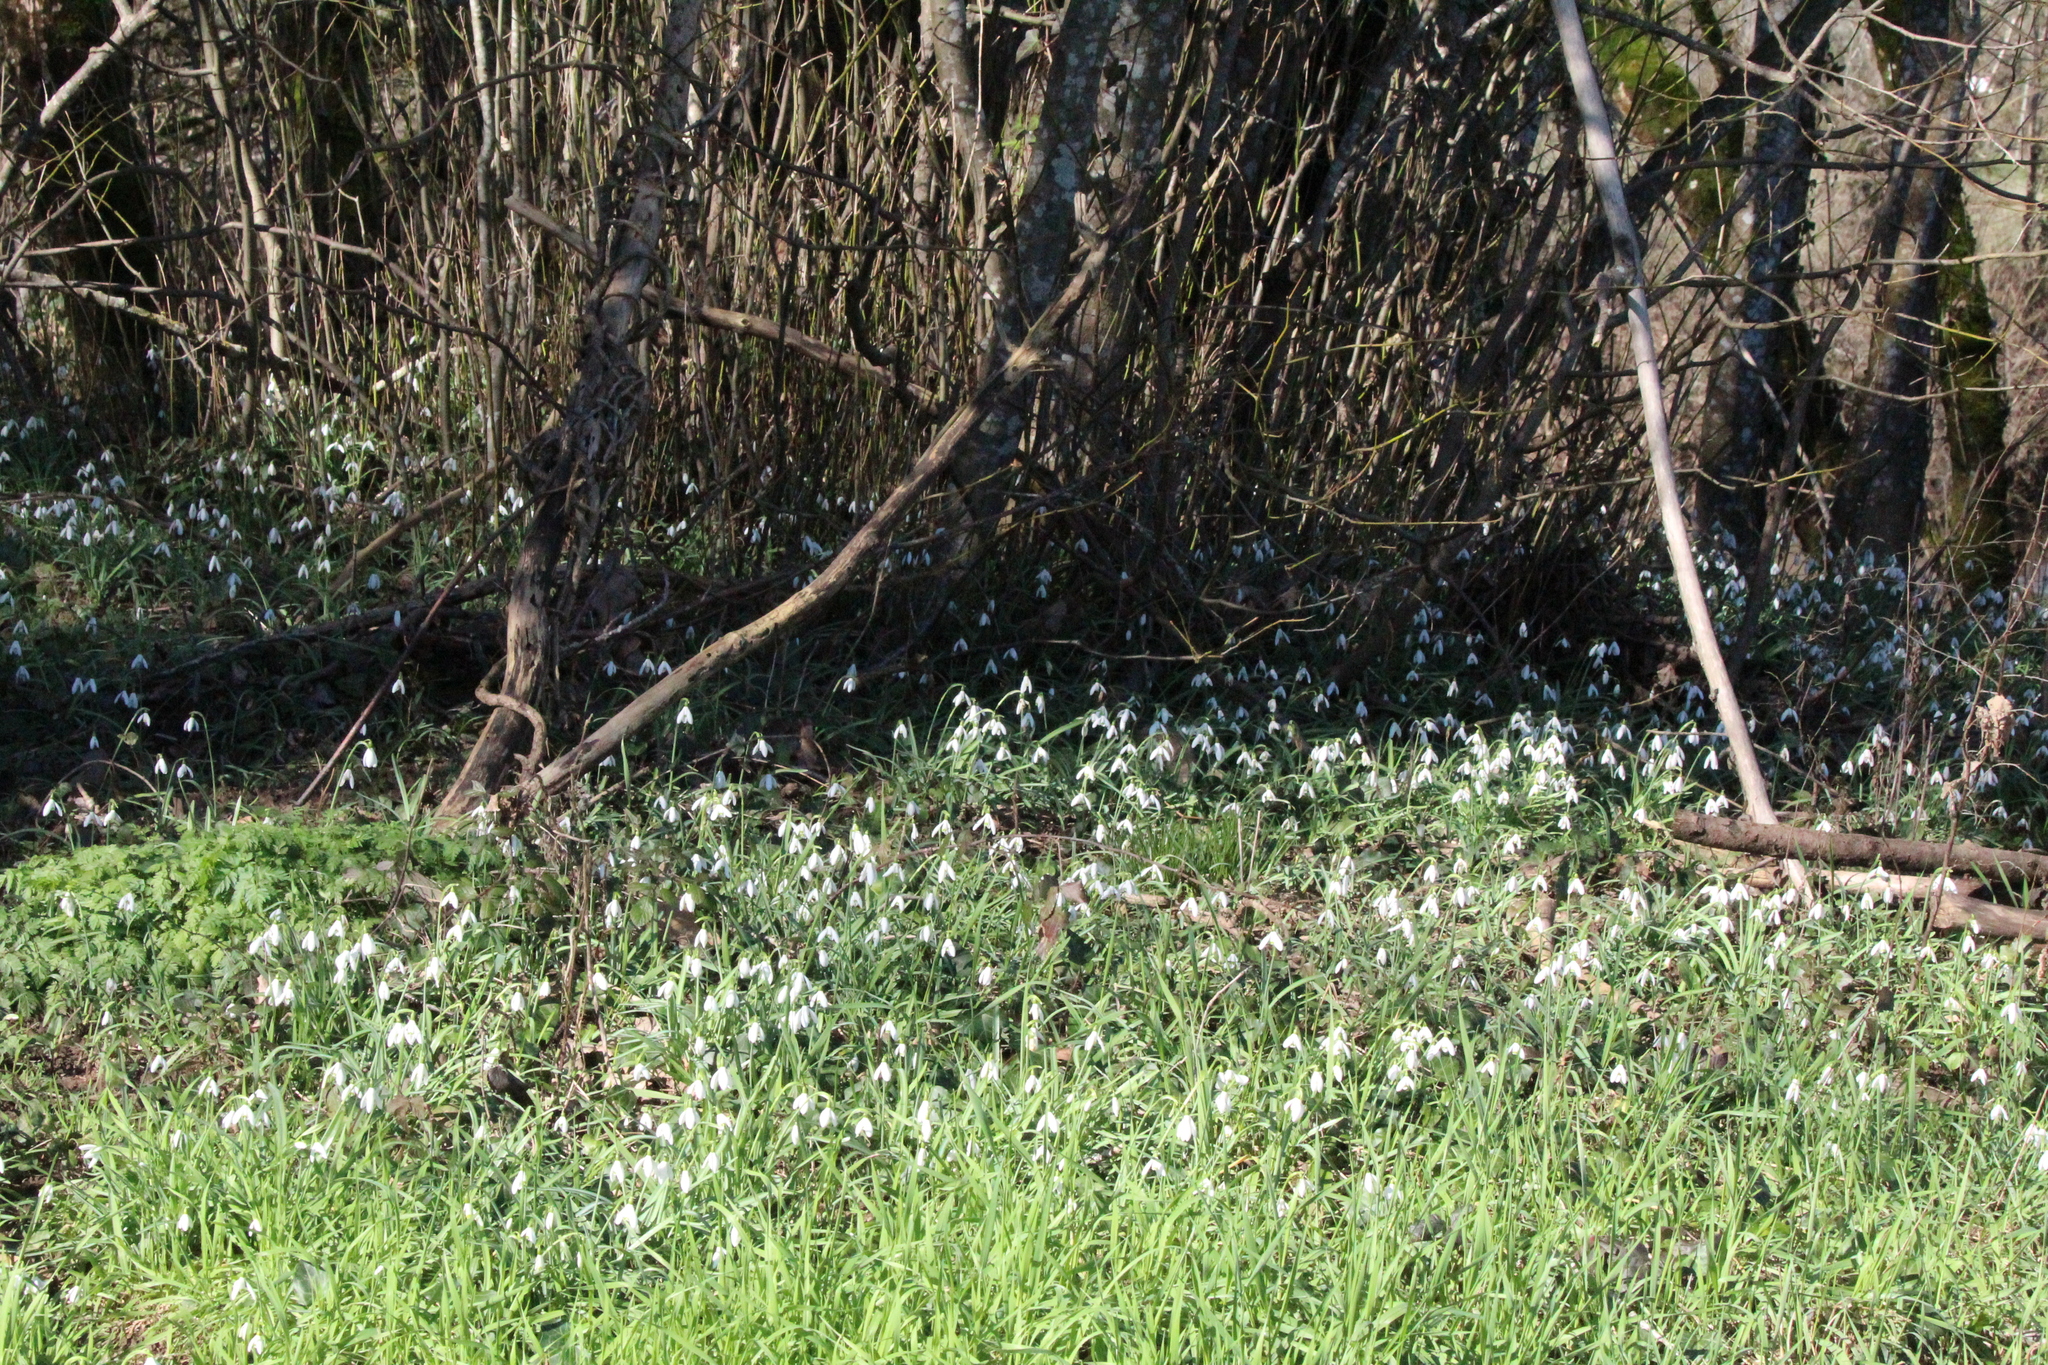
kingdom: Plantae
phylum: Tracheophyta
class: Liliopsida
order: Asparagales
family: Amaryllidaceae
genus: Galanthus
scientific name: Galanthus nivalis
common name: Snowdrop
